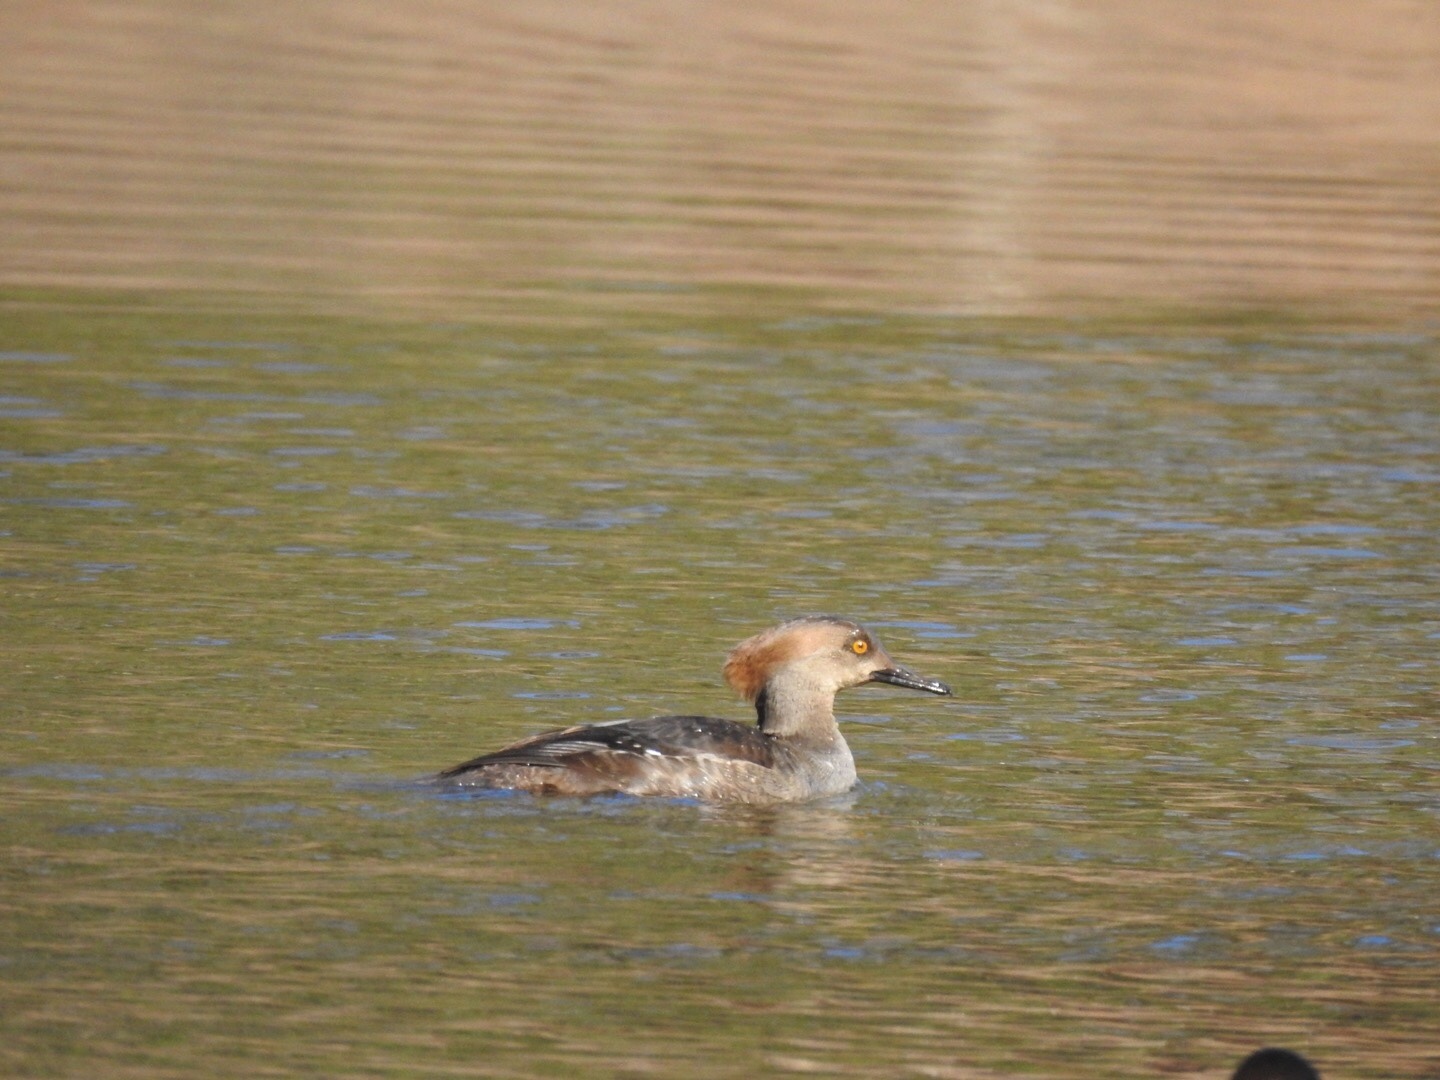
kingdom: Animalia
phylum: Chordata
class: Aves
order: Anseriformes
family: Anatidae
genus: Lophodytes
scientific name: Lophodytes cucullatus
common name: Hooded merganser
